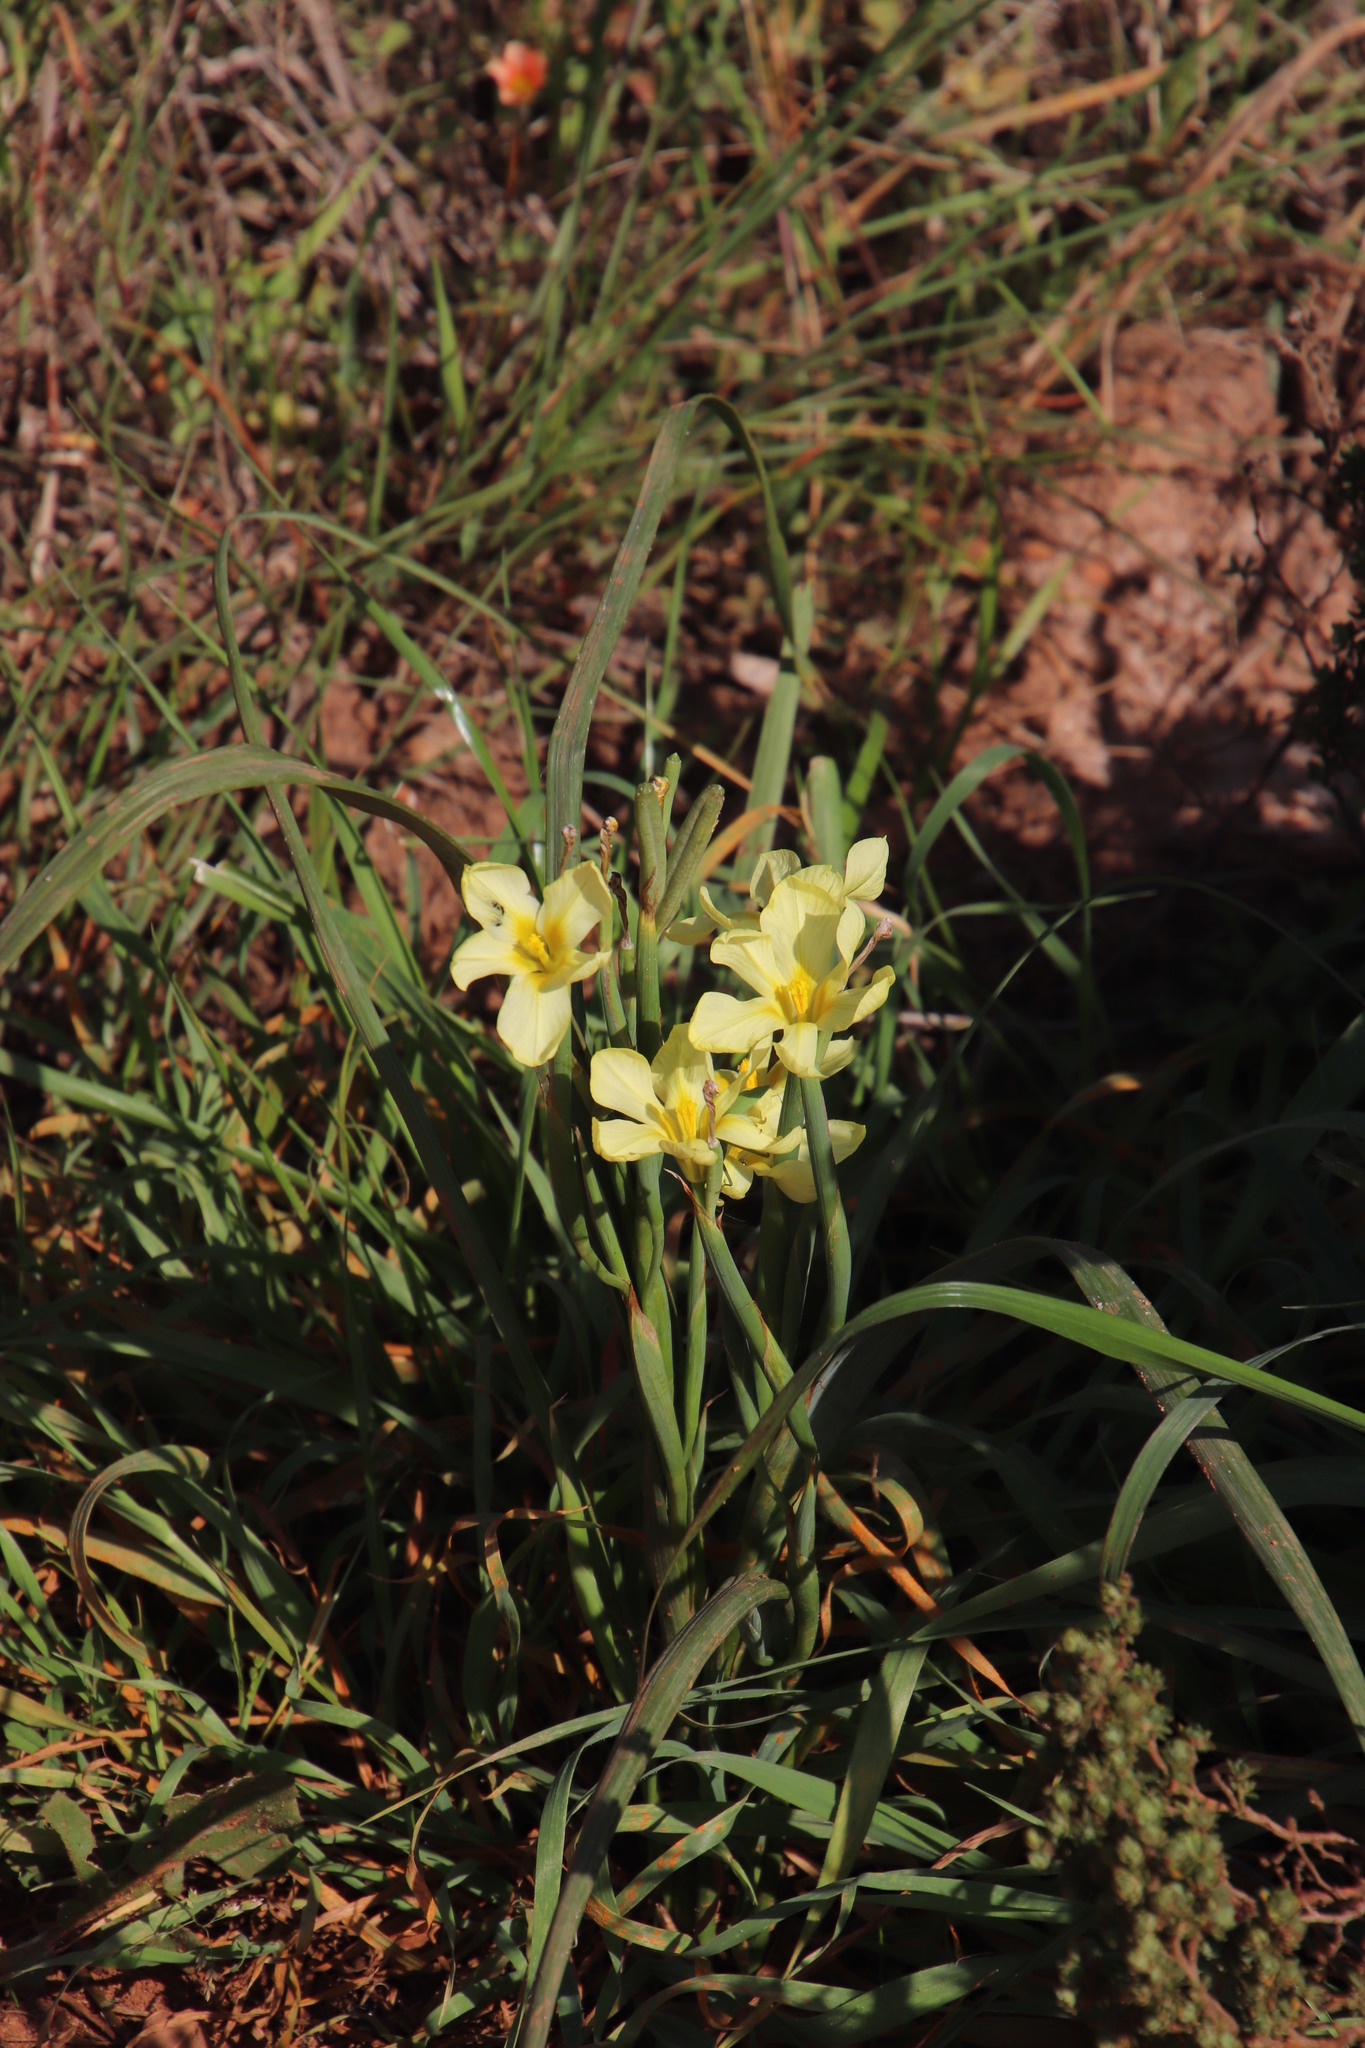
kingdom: Plantae
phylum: Tracheophyta
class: Liliopsida
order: Asparagales
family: Iridaceae
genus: Moraea
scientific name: Moraea collina
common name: Cape-tulip
